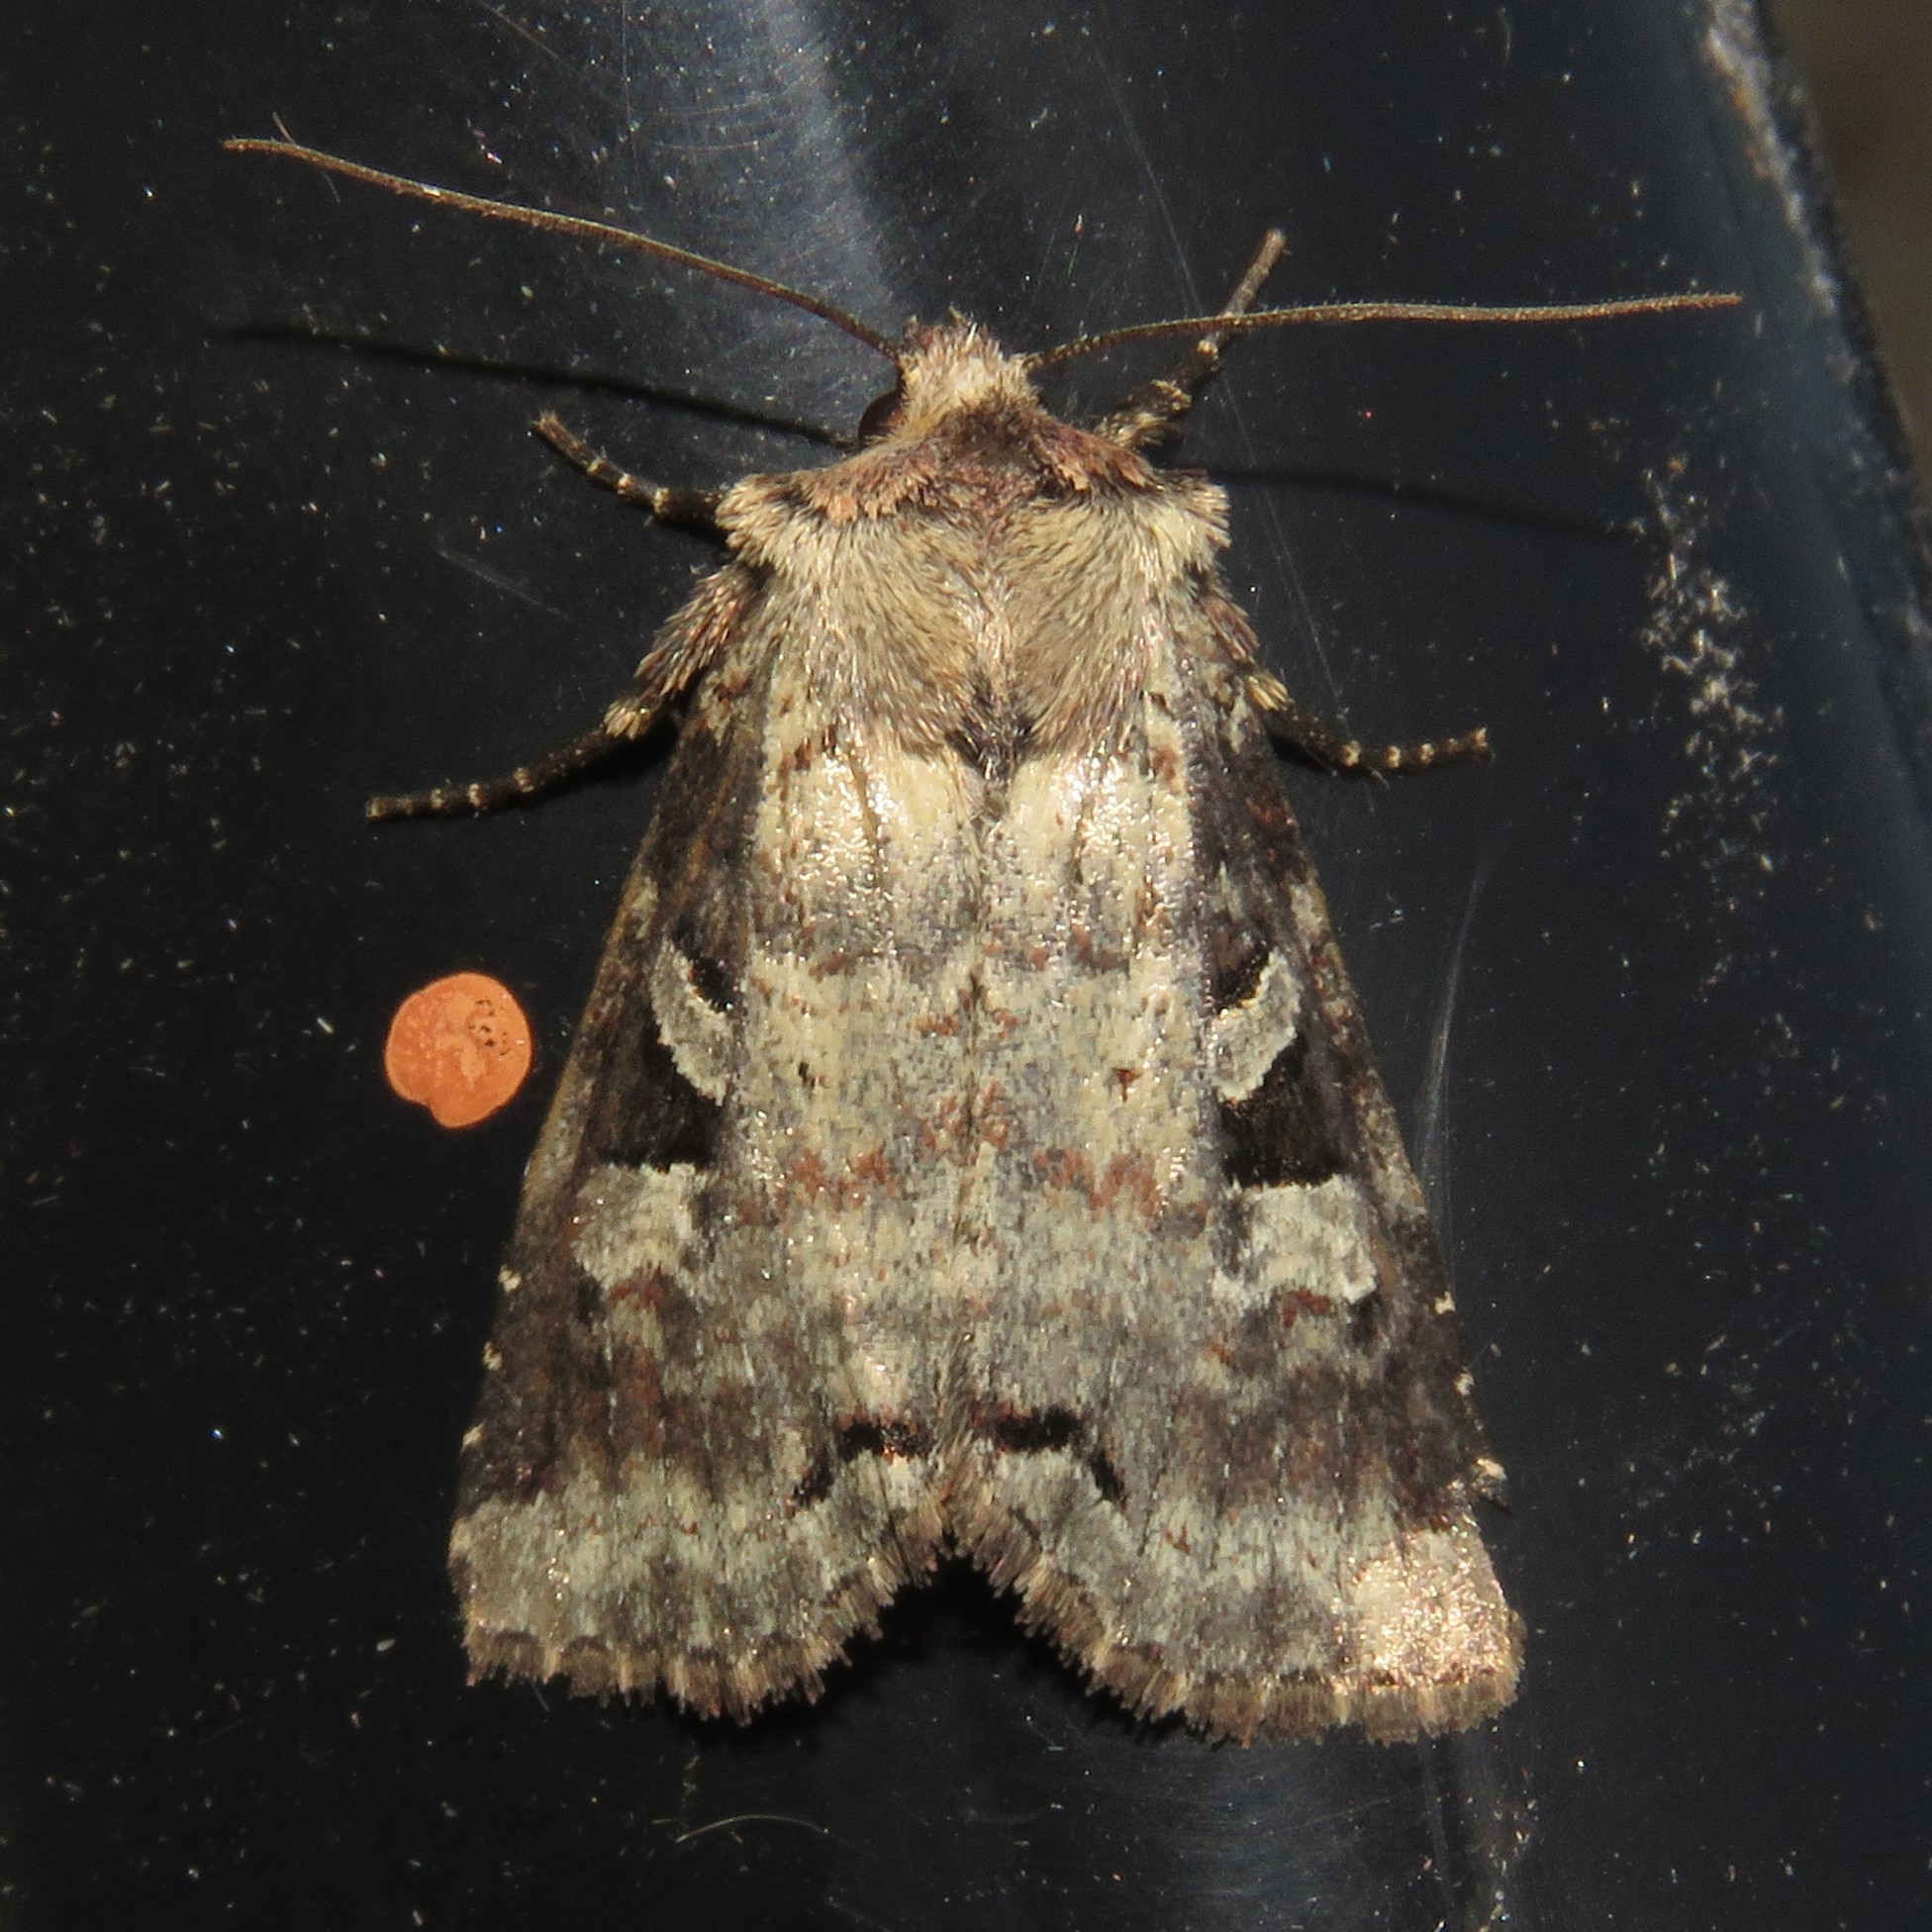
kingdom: Animalia
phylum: Arthropoda
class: Insecta
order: Lepidoptera
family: Noctuidae
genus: Hillia
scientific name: Hillia iris
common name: Iris rover moth
